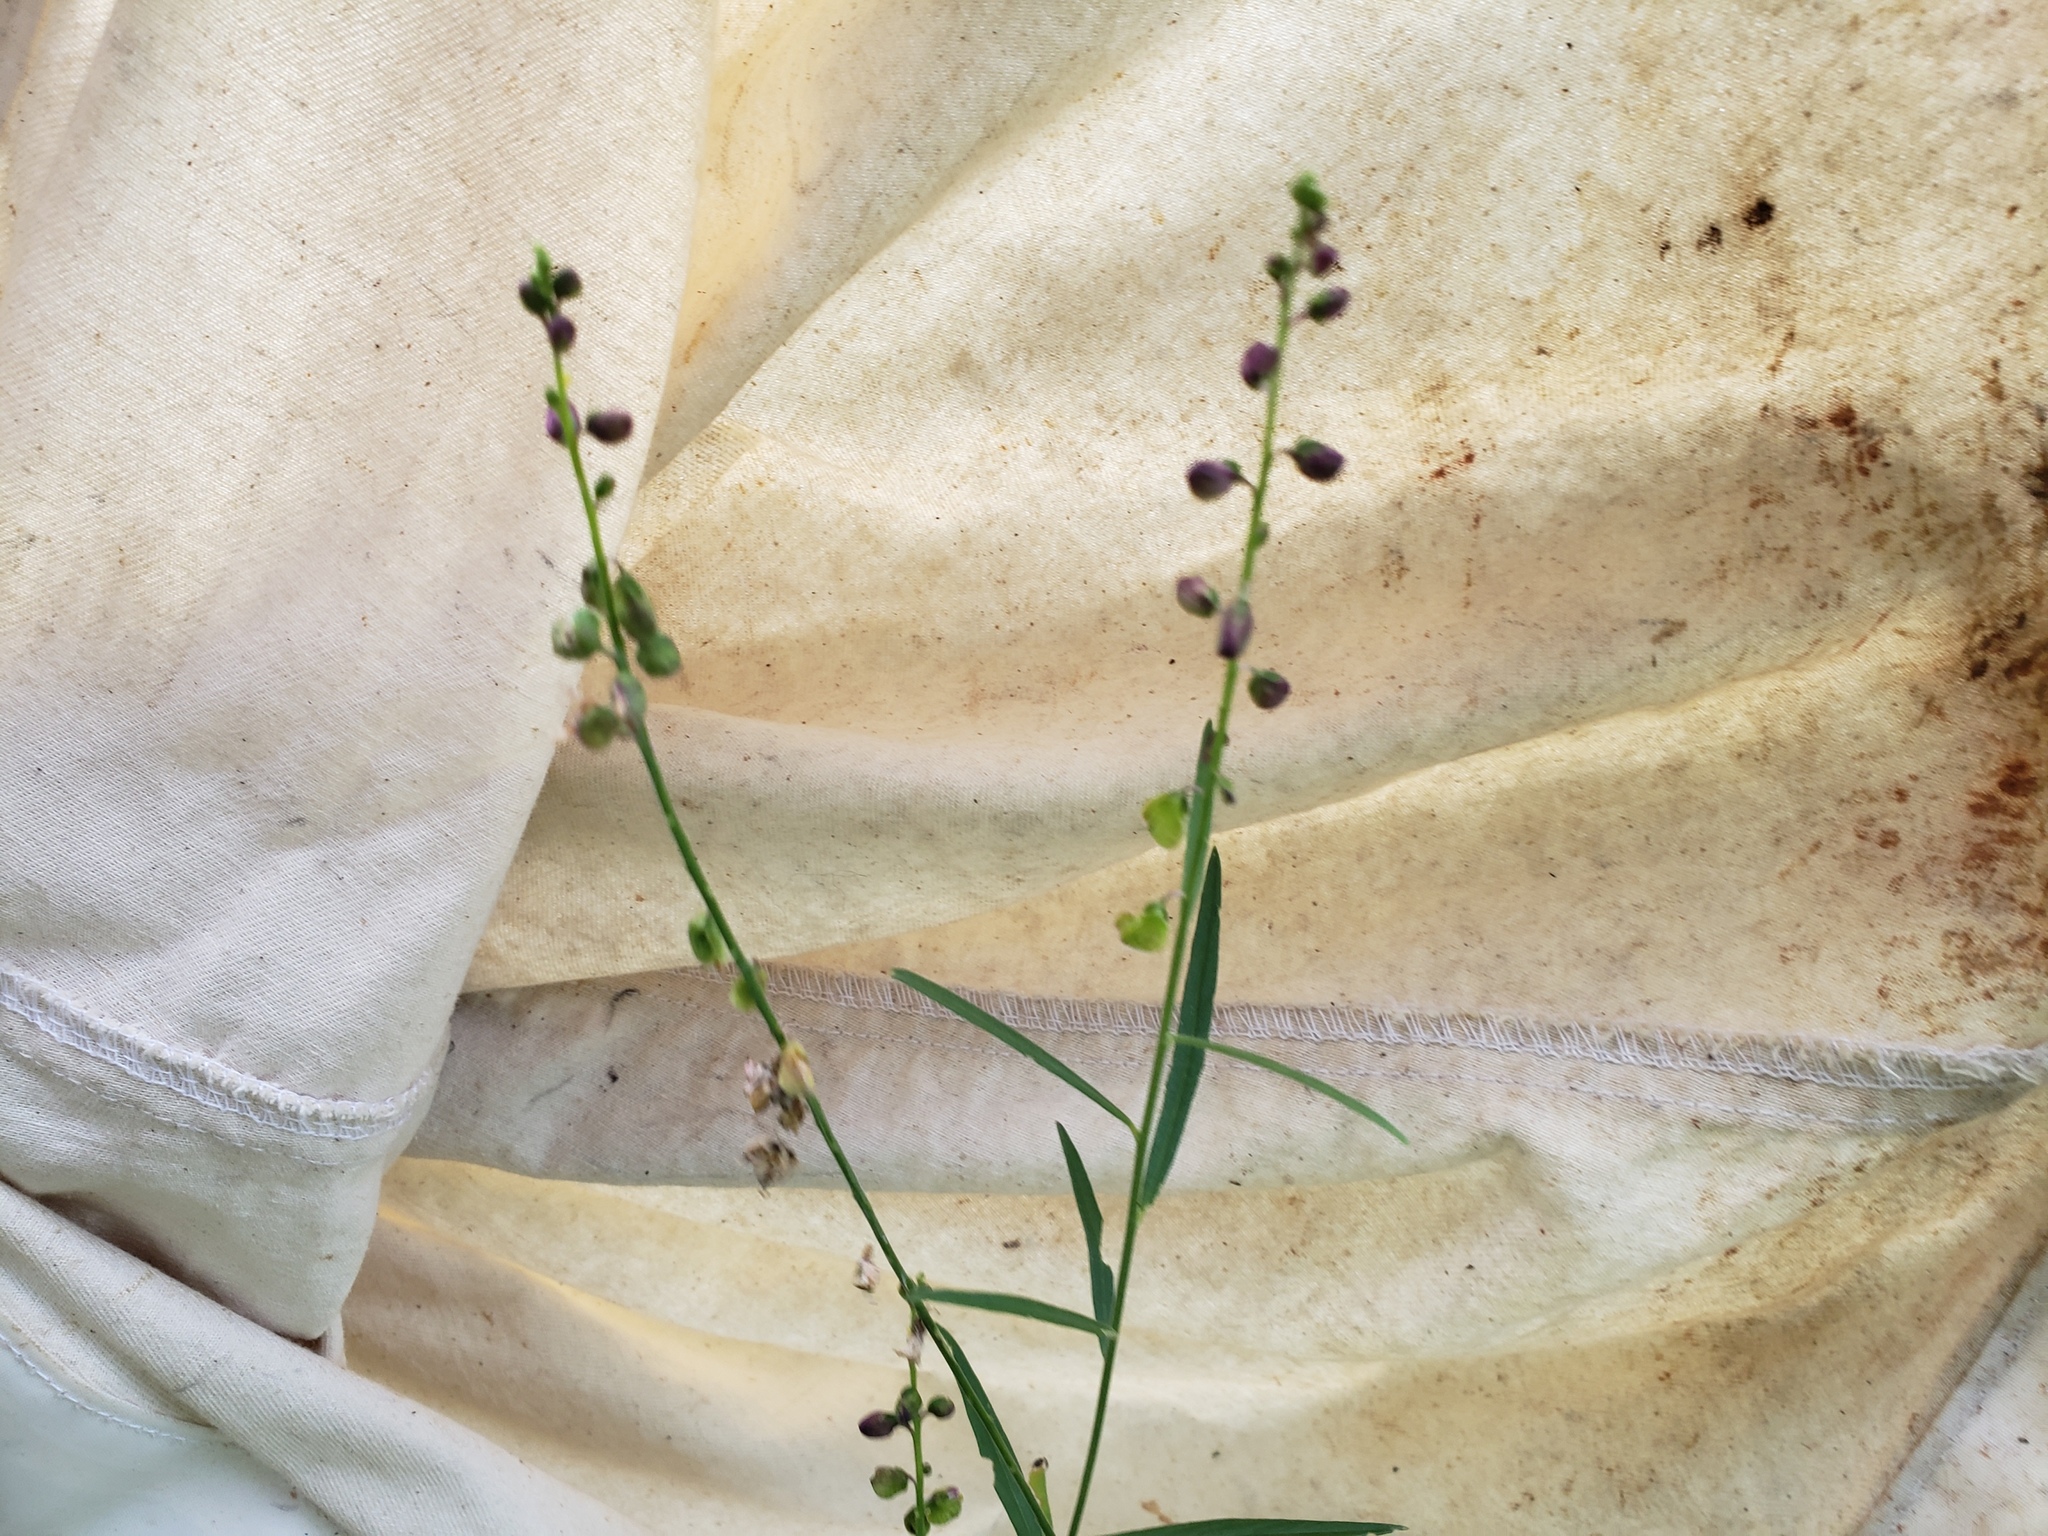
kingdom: Plantae
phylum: Tracheophyta
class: Magnoliopsida
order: Fabales
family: Polygalaceae
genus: Asemeia
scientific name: Asemeia grandiflora
